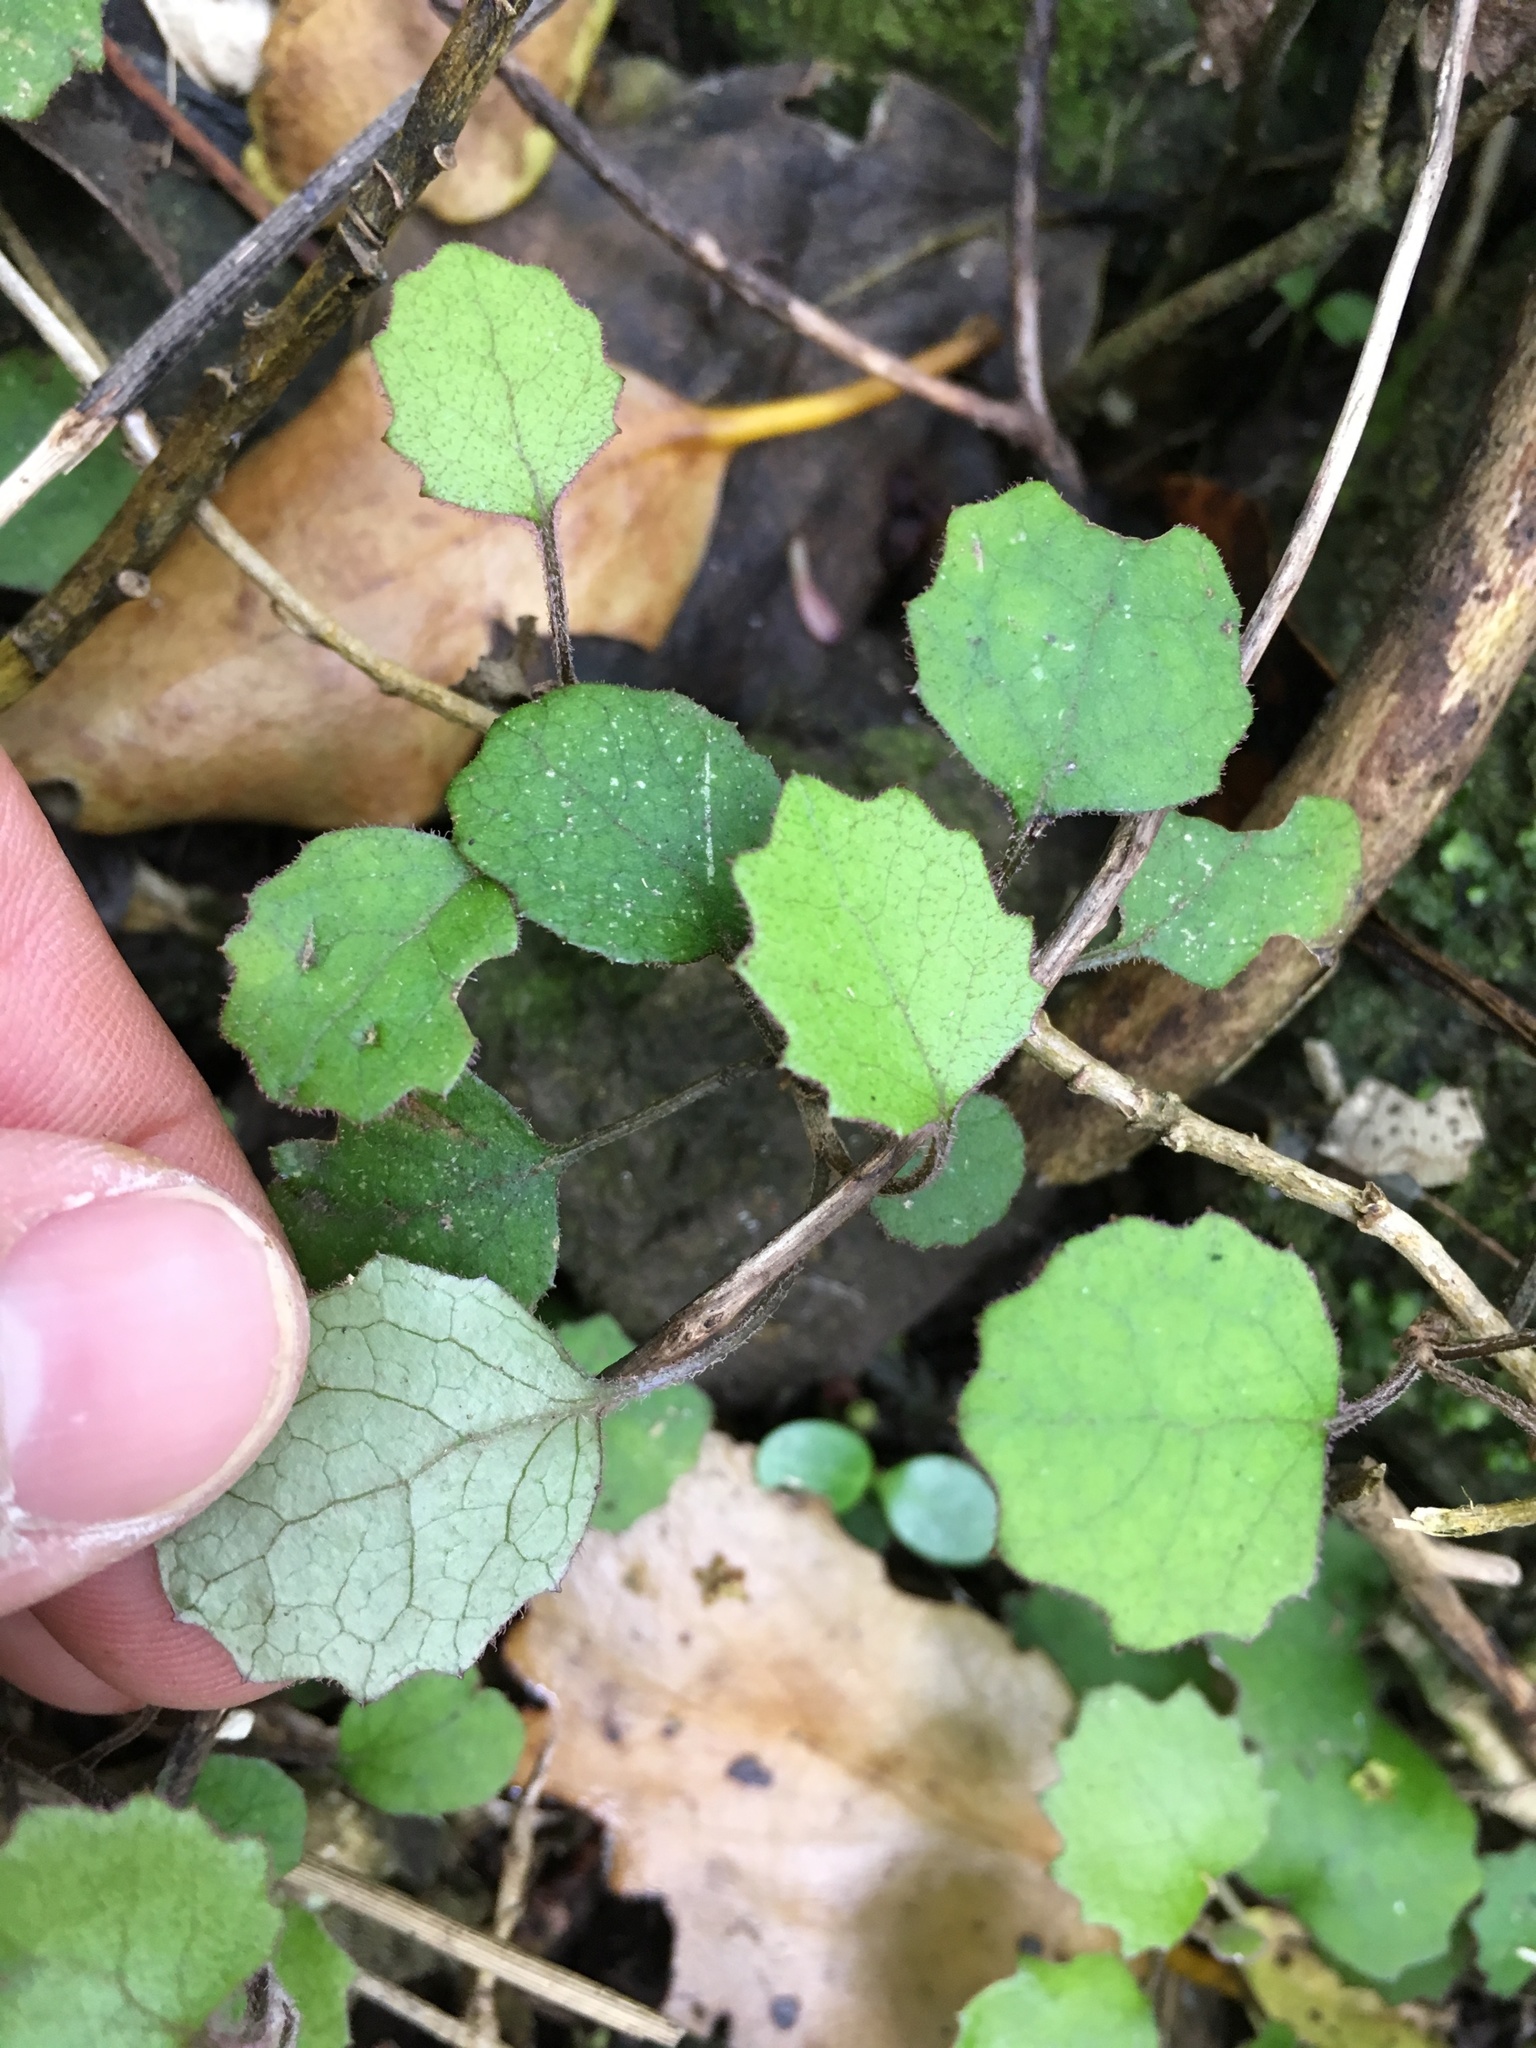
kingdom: Plantae
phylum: Tracheophyta
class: Magnoliopsida
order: Asterales
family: Asteraceae
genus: Brachyglottis
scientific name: Brachyglottis sciadophila
